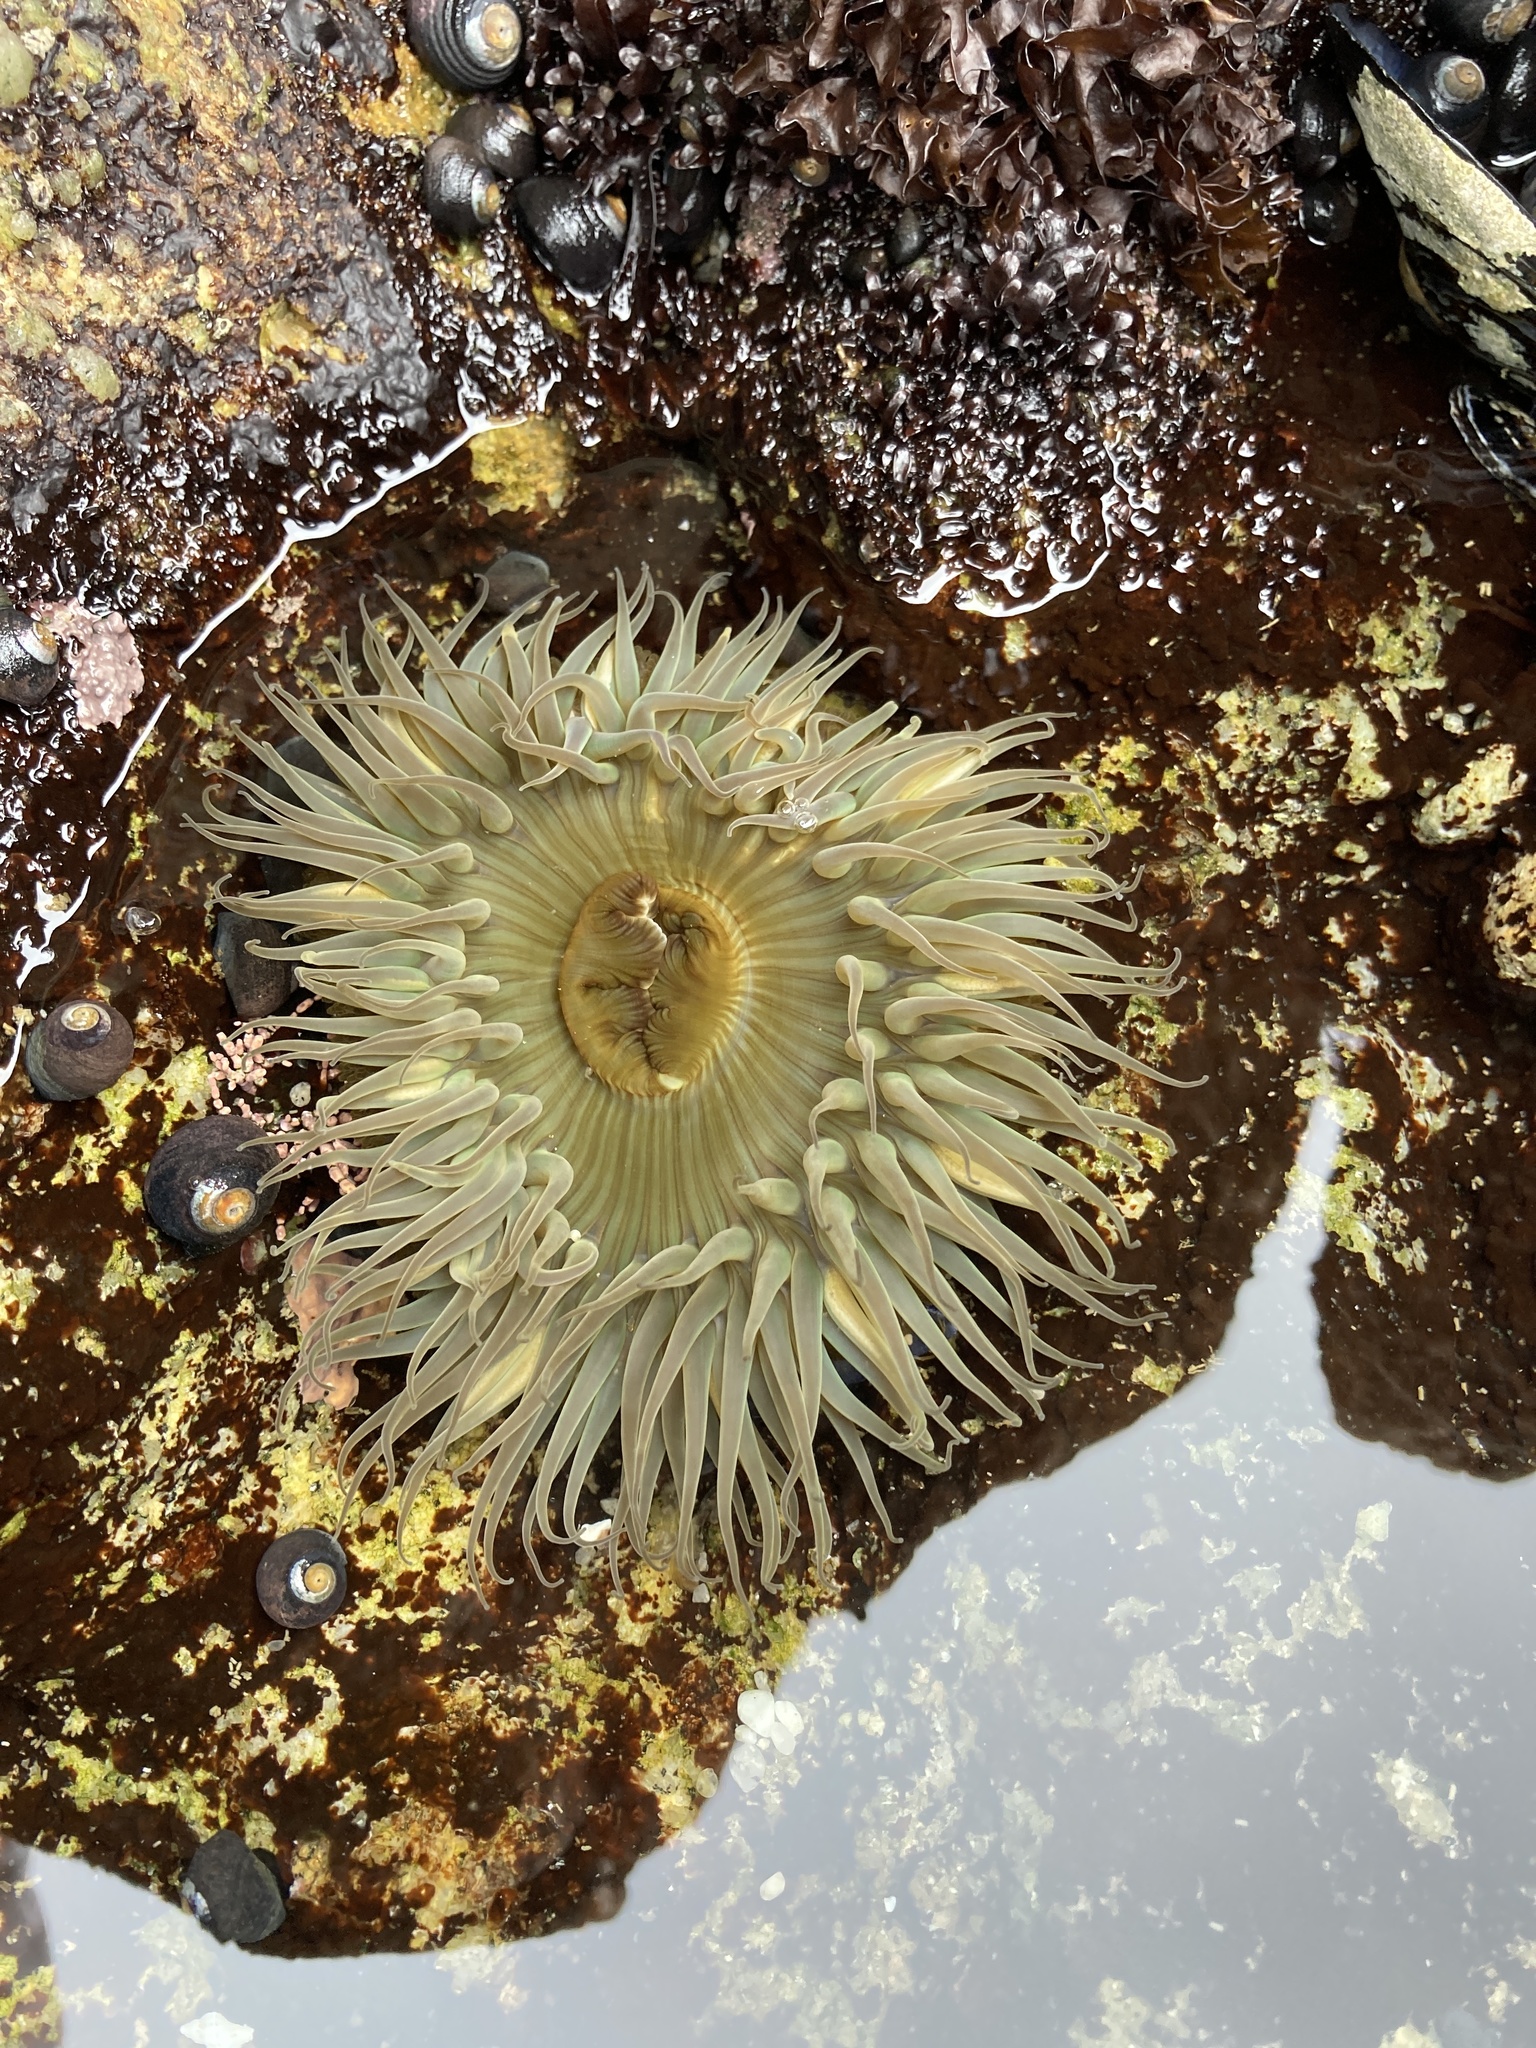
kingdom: Animalia
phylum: Cnidaria
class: Anthozoa
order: Actiniaria
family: Actiniidae
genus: Anthopleura
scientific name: Anthopleura sola
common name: Sun anemone
